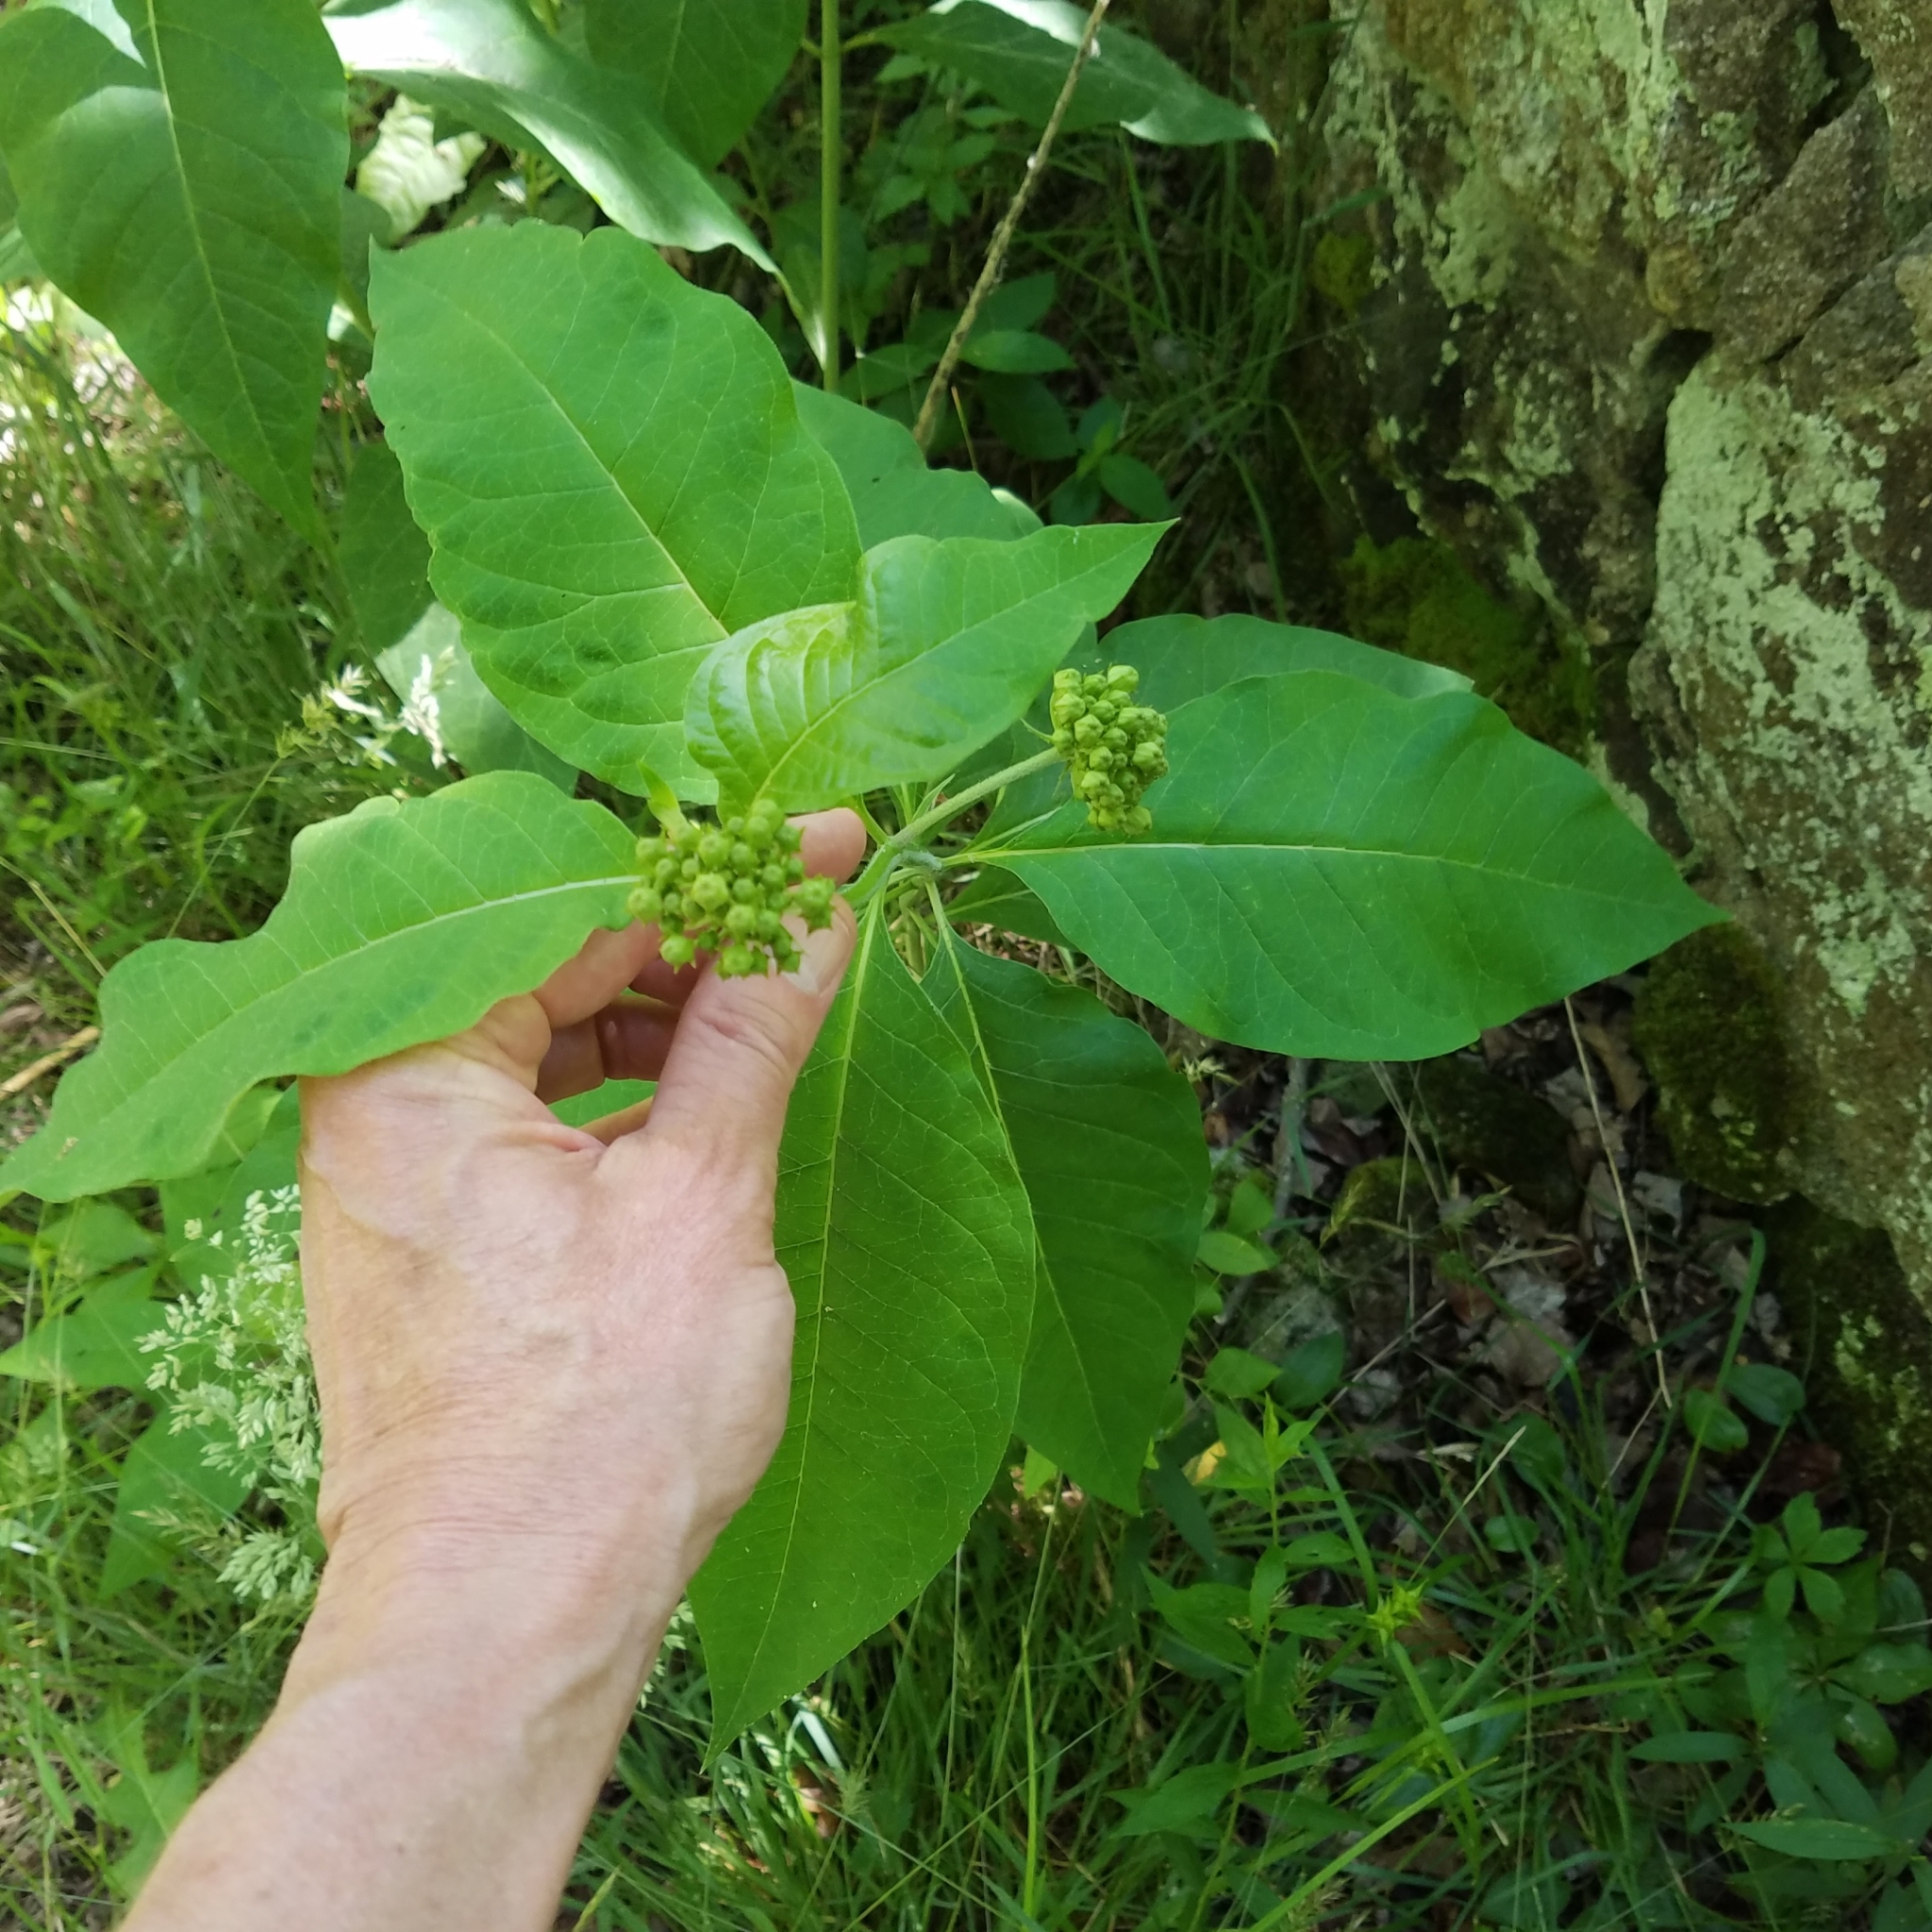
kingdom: Plantae
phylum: Tracheophyta
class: Magnoliopsida
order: Gentianales
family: Apocynaceae
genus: Asclepias
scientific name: Asclepias exaltata
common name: Poke milkweed
